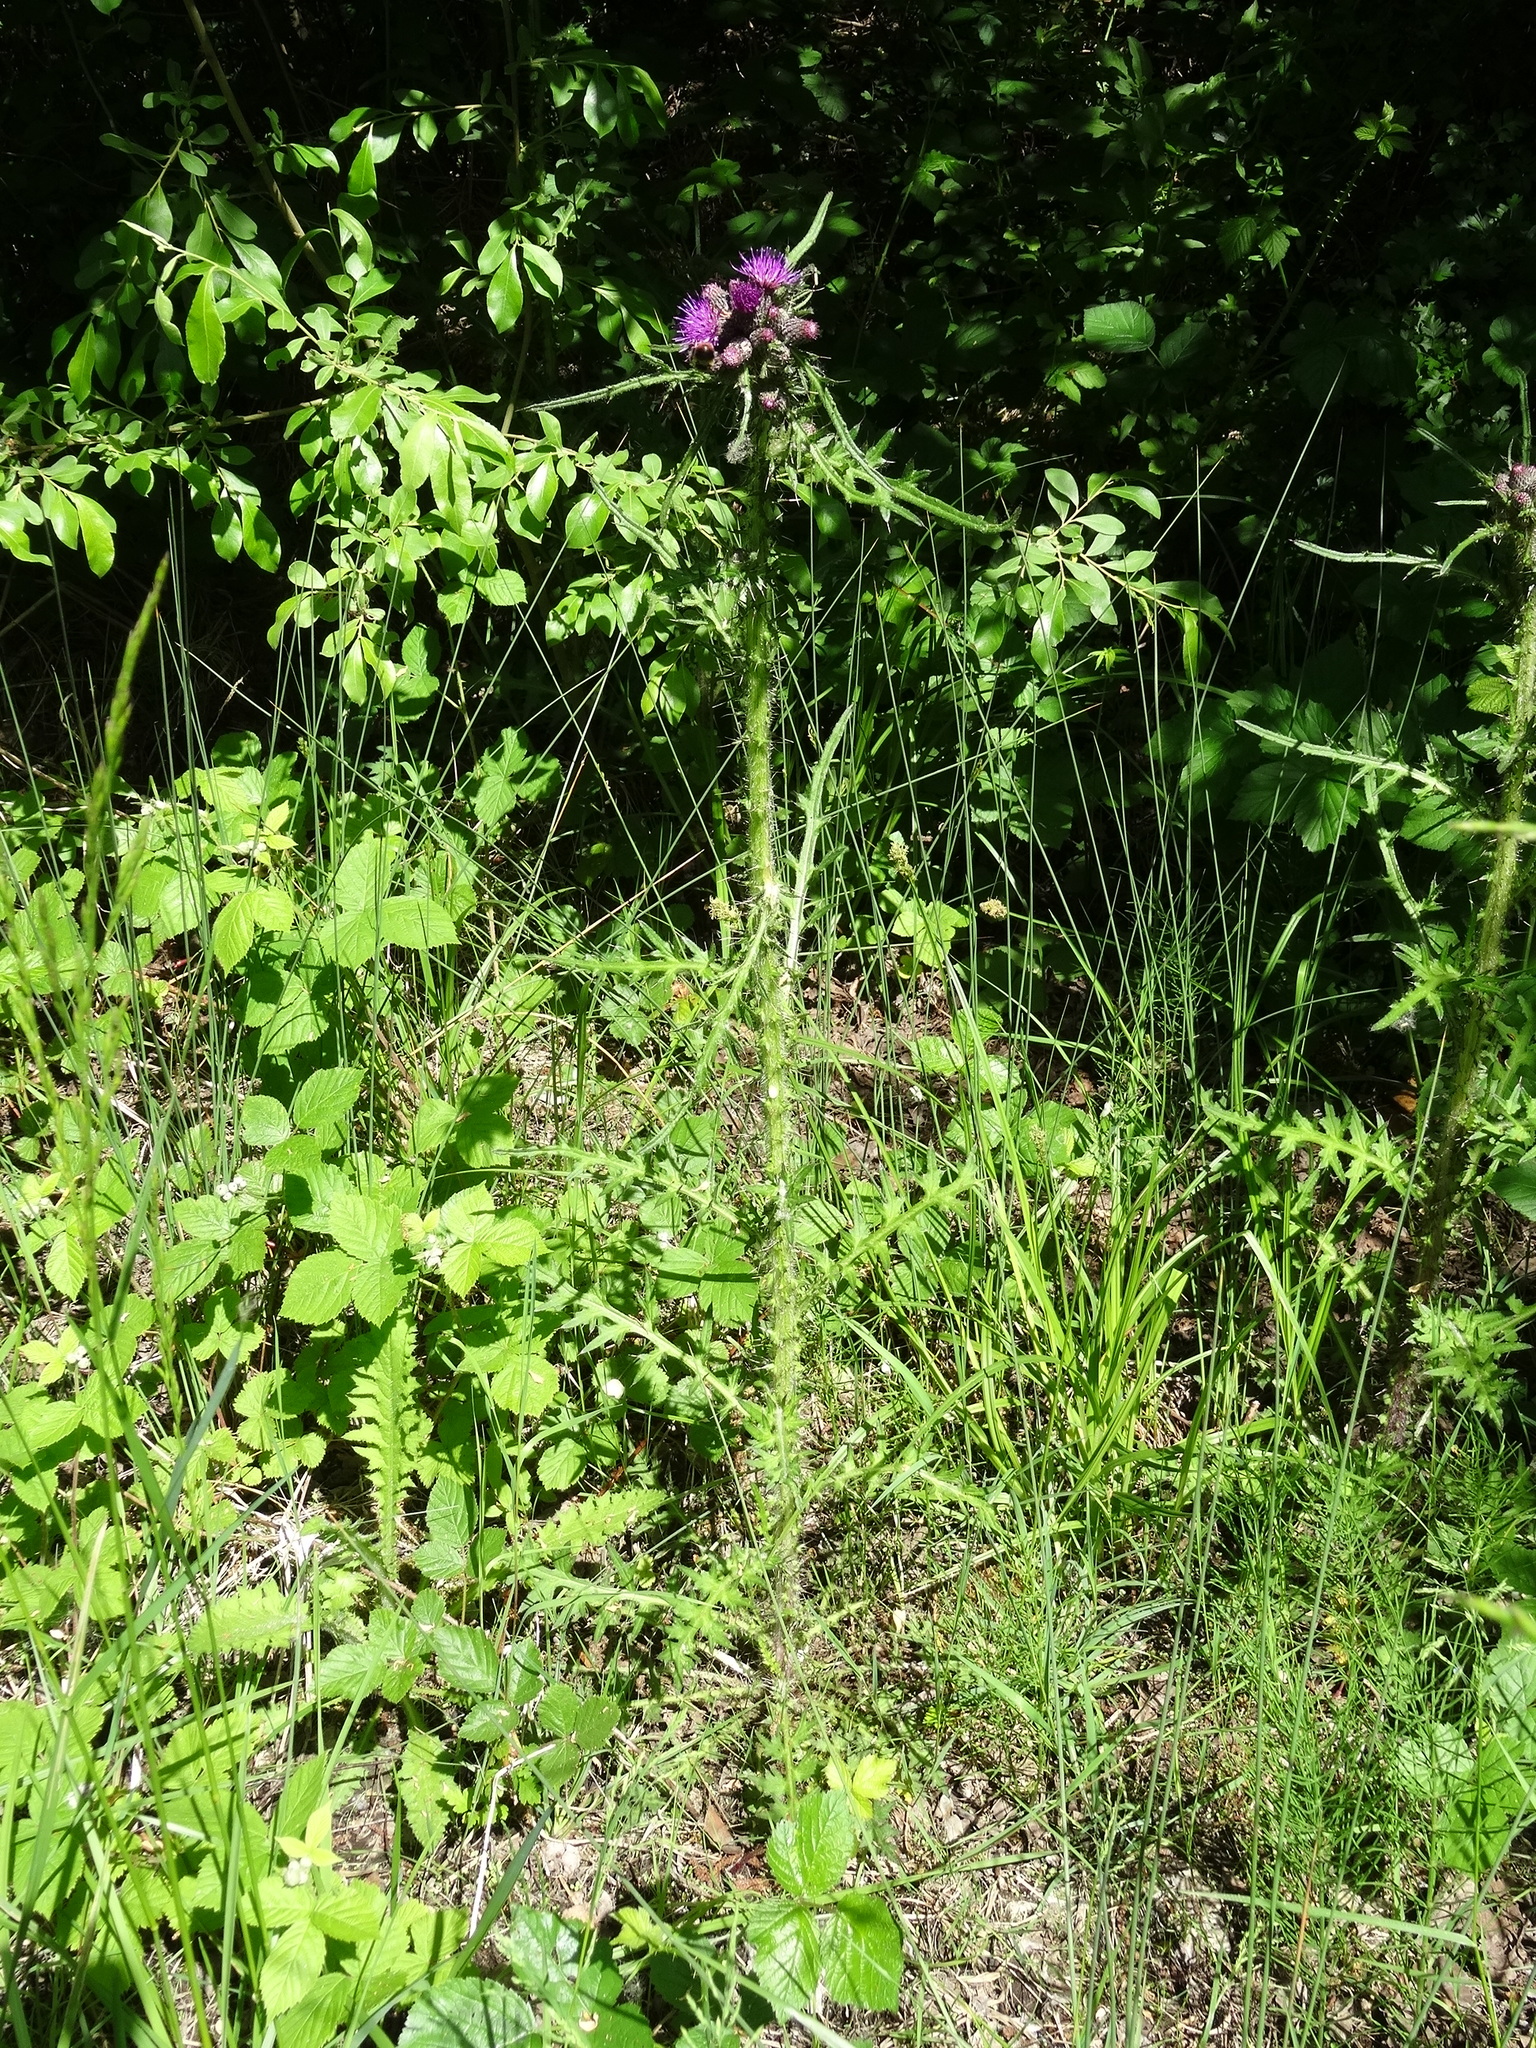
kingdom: Plantae
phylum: Tracheophyta
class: Magnoliopsida
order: Asterales
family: Asteraceae
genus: Cirsium
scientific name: Cirsium palustre
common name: Marsh thistle
